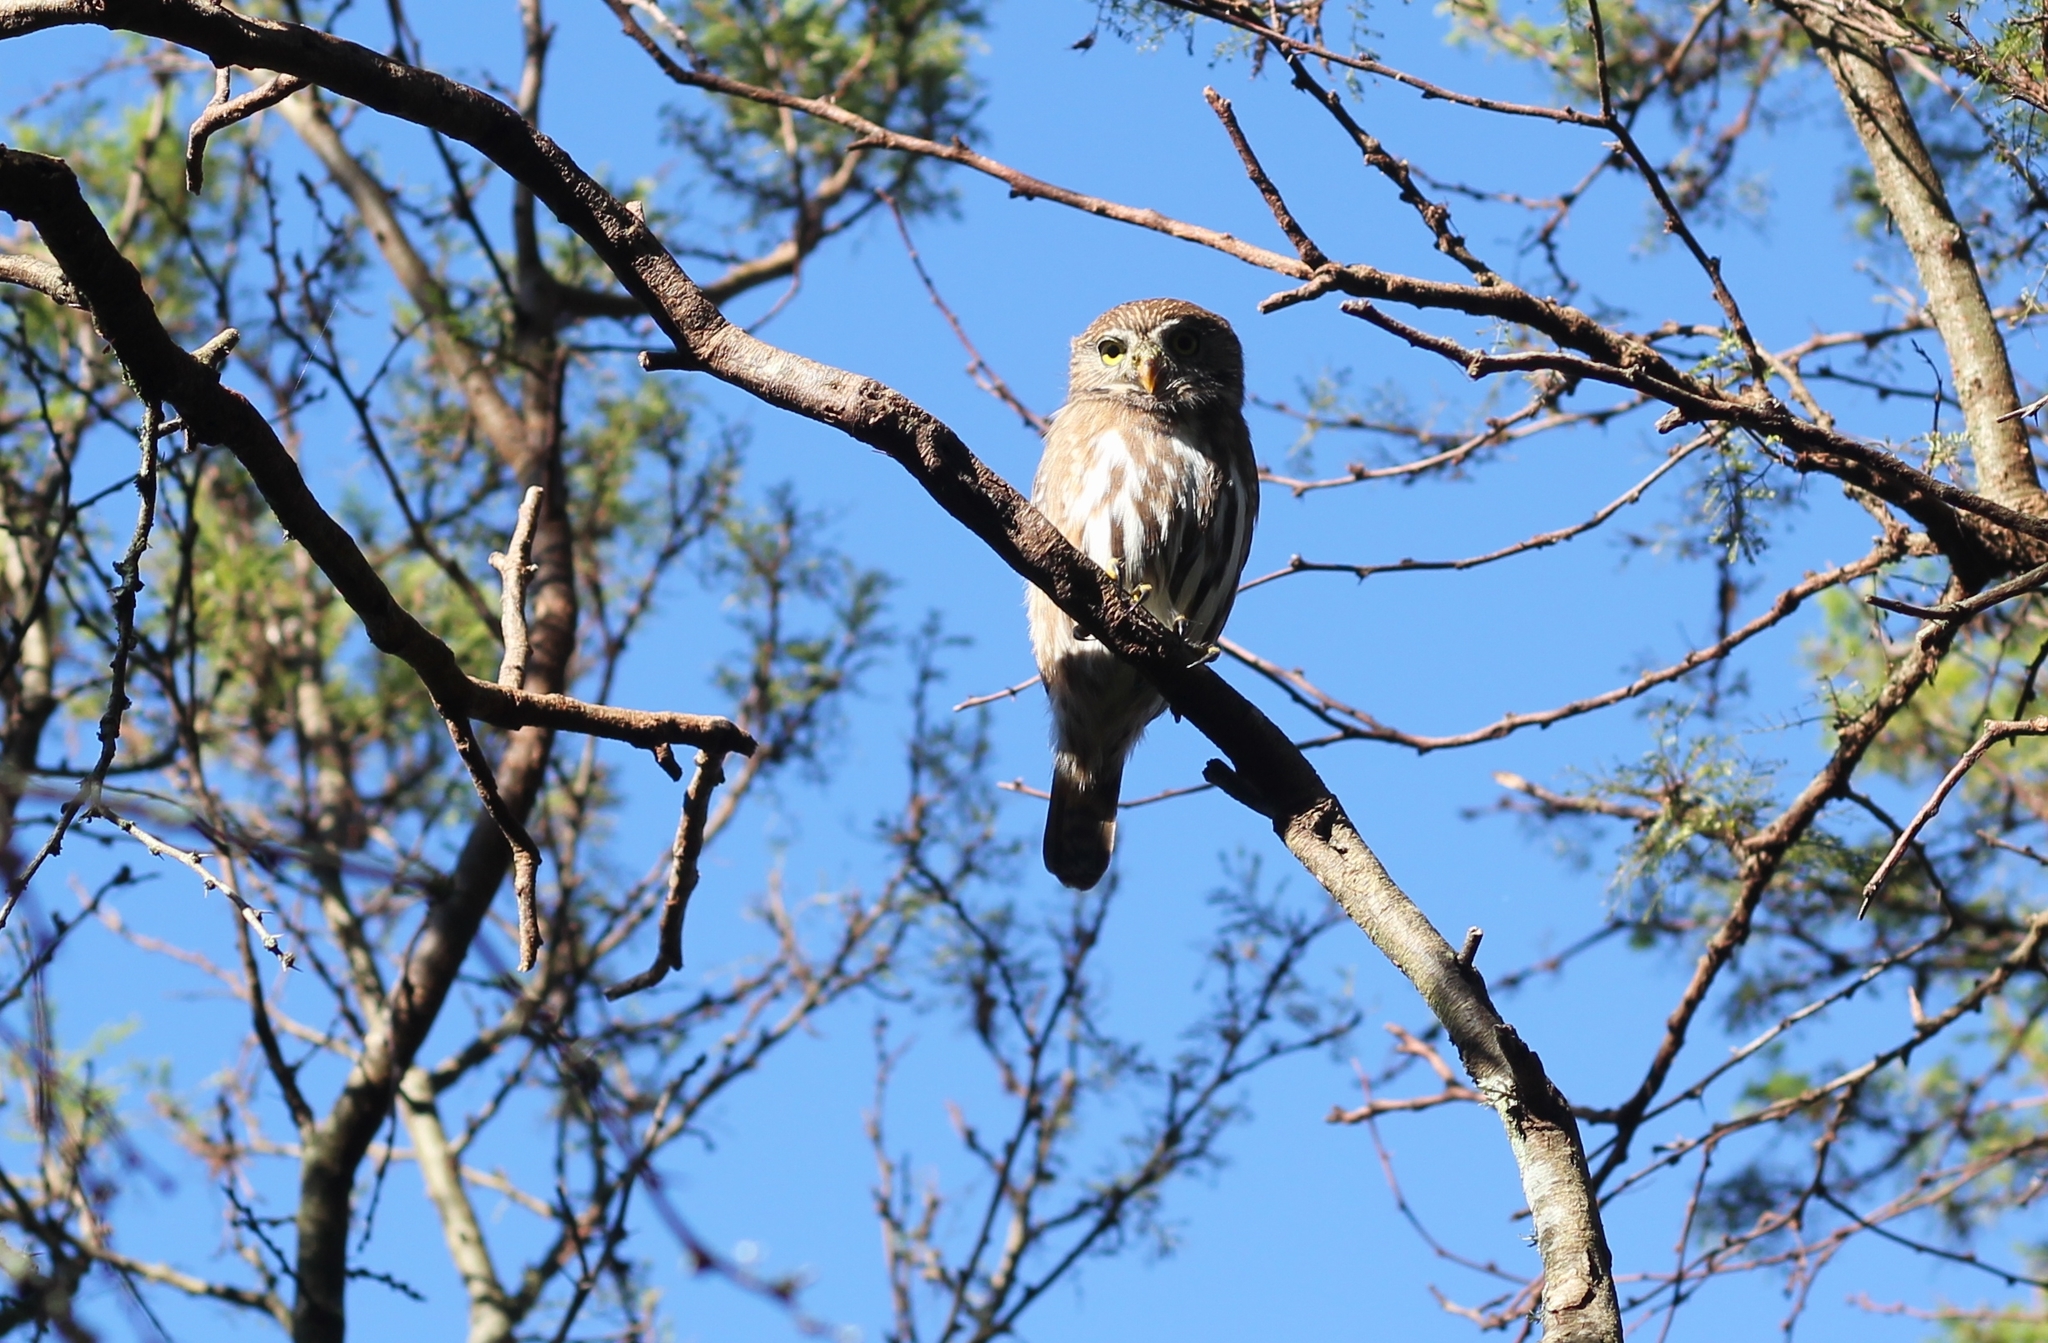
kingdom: Animalia
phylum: Chordata
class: Aves
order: Strigiformes
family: Strigidae
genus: Glaucidium
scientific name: Glaucidium brasilianum
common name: Ferruginous pygmy-owl
